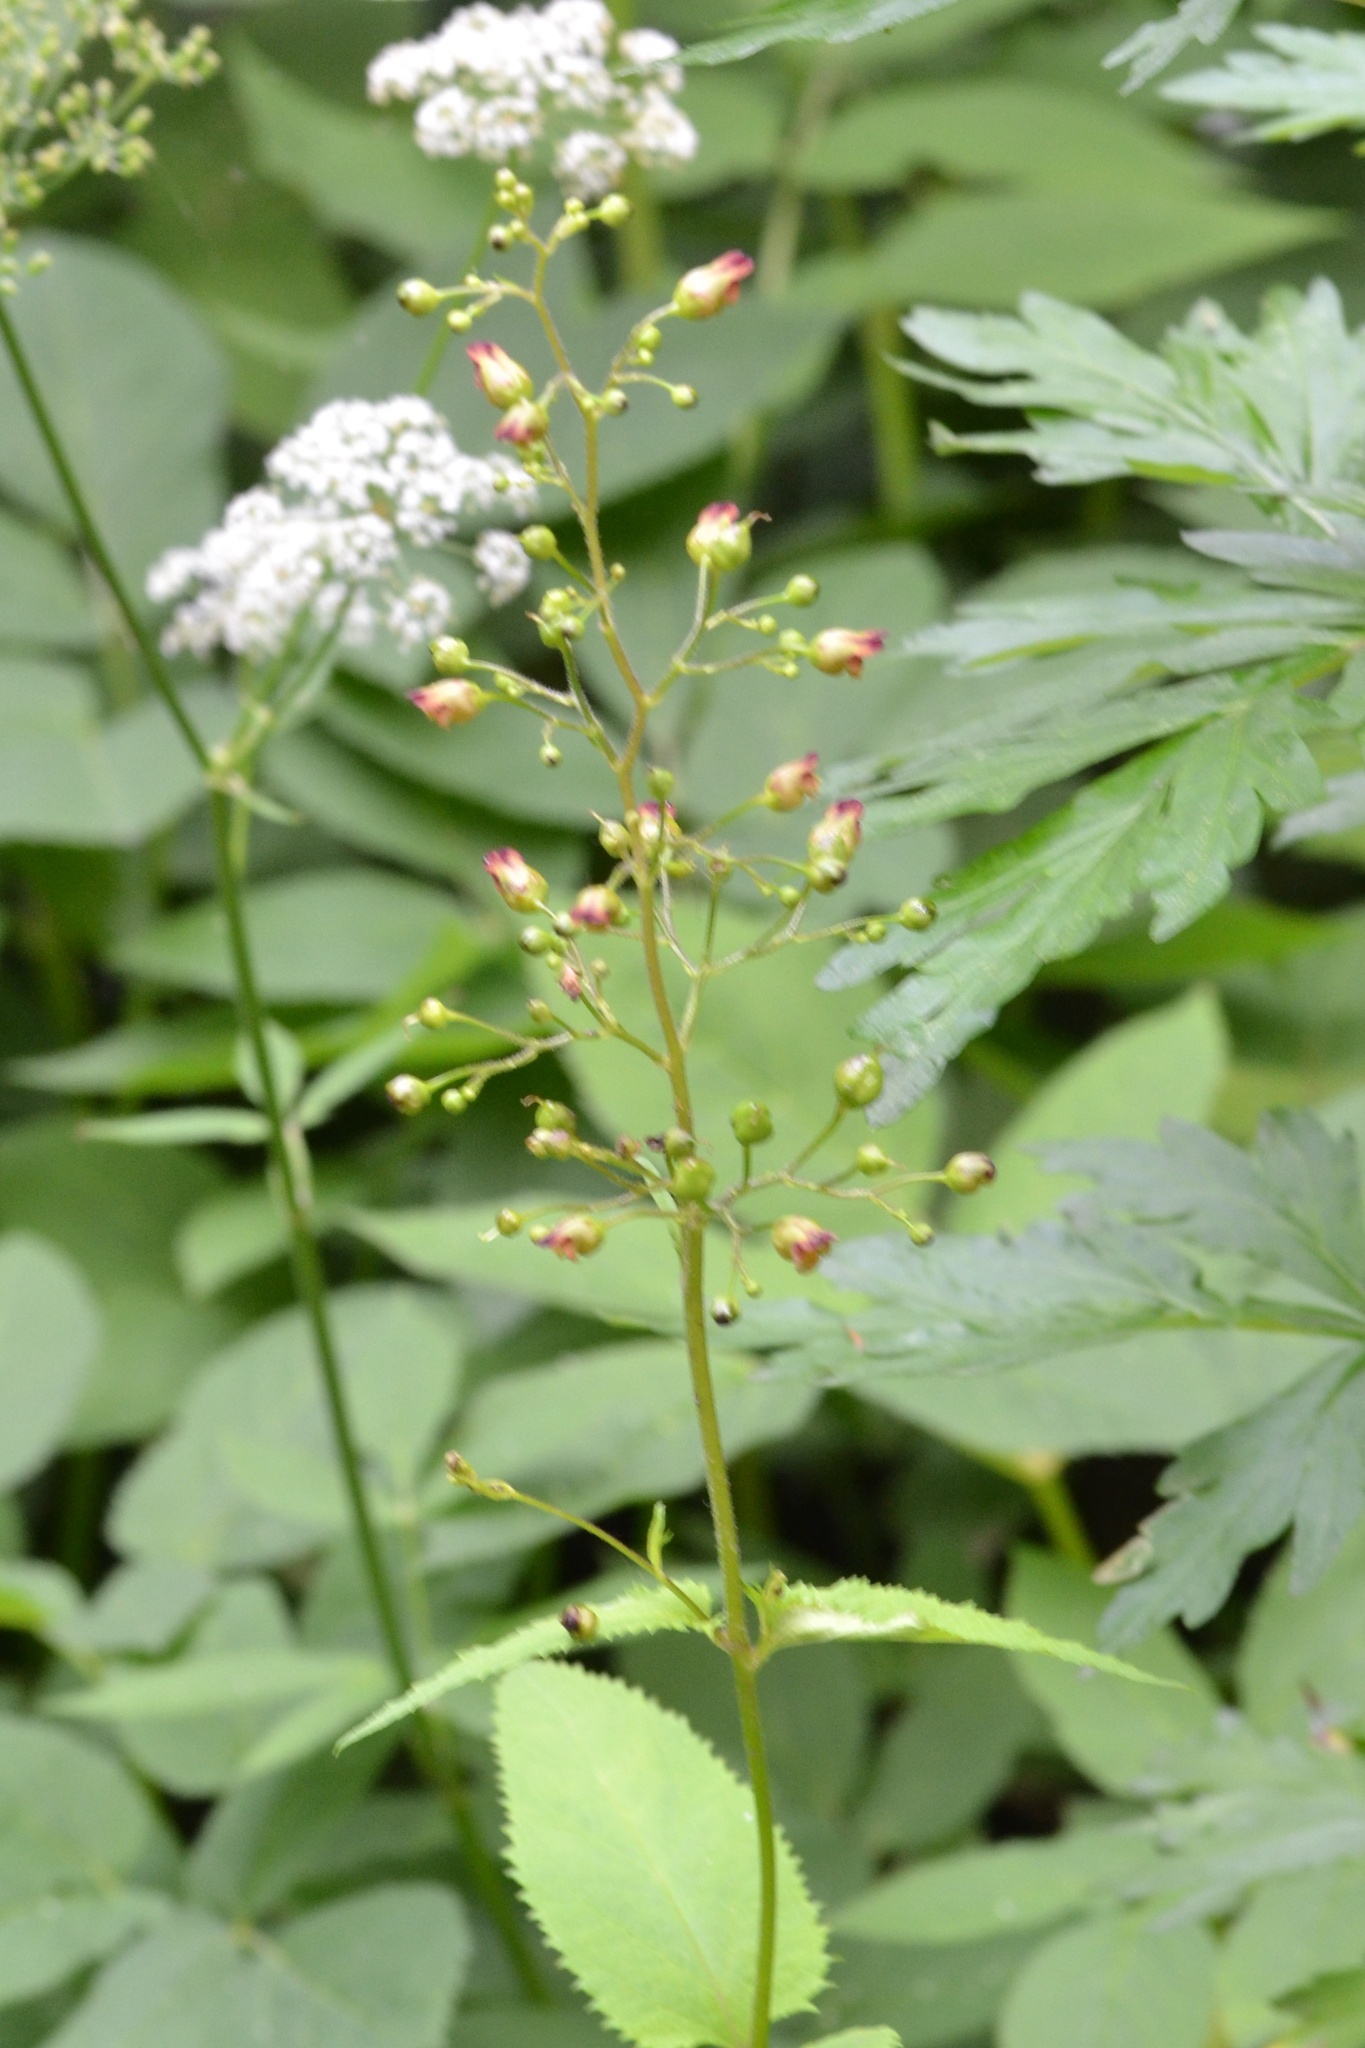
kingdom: Plantae
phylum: Tracheophyta
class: Magnoliopsida
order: Lamiales
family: Scrophulariaceae
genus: Scrophularia
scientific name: Scrophularia nodosa
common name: Common figwort
